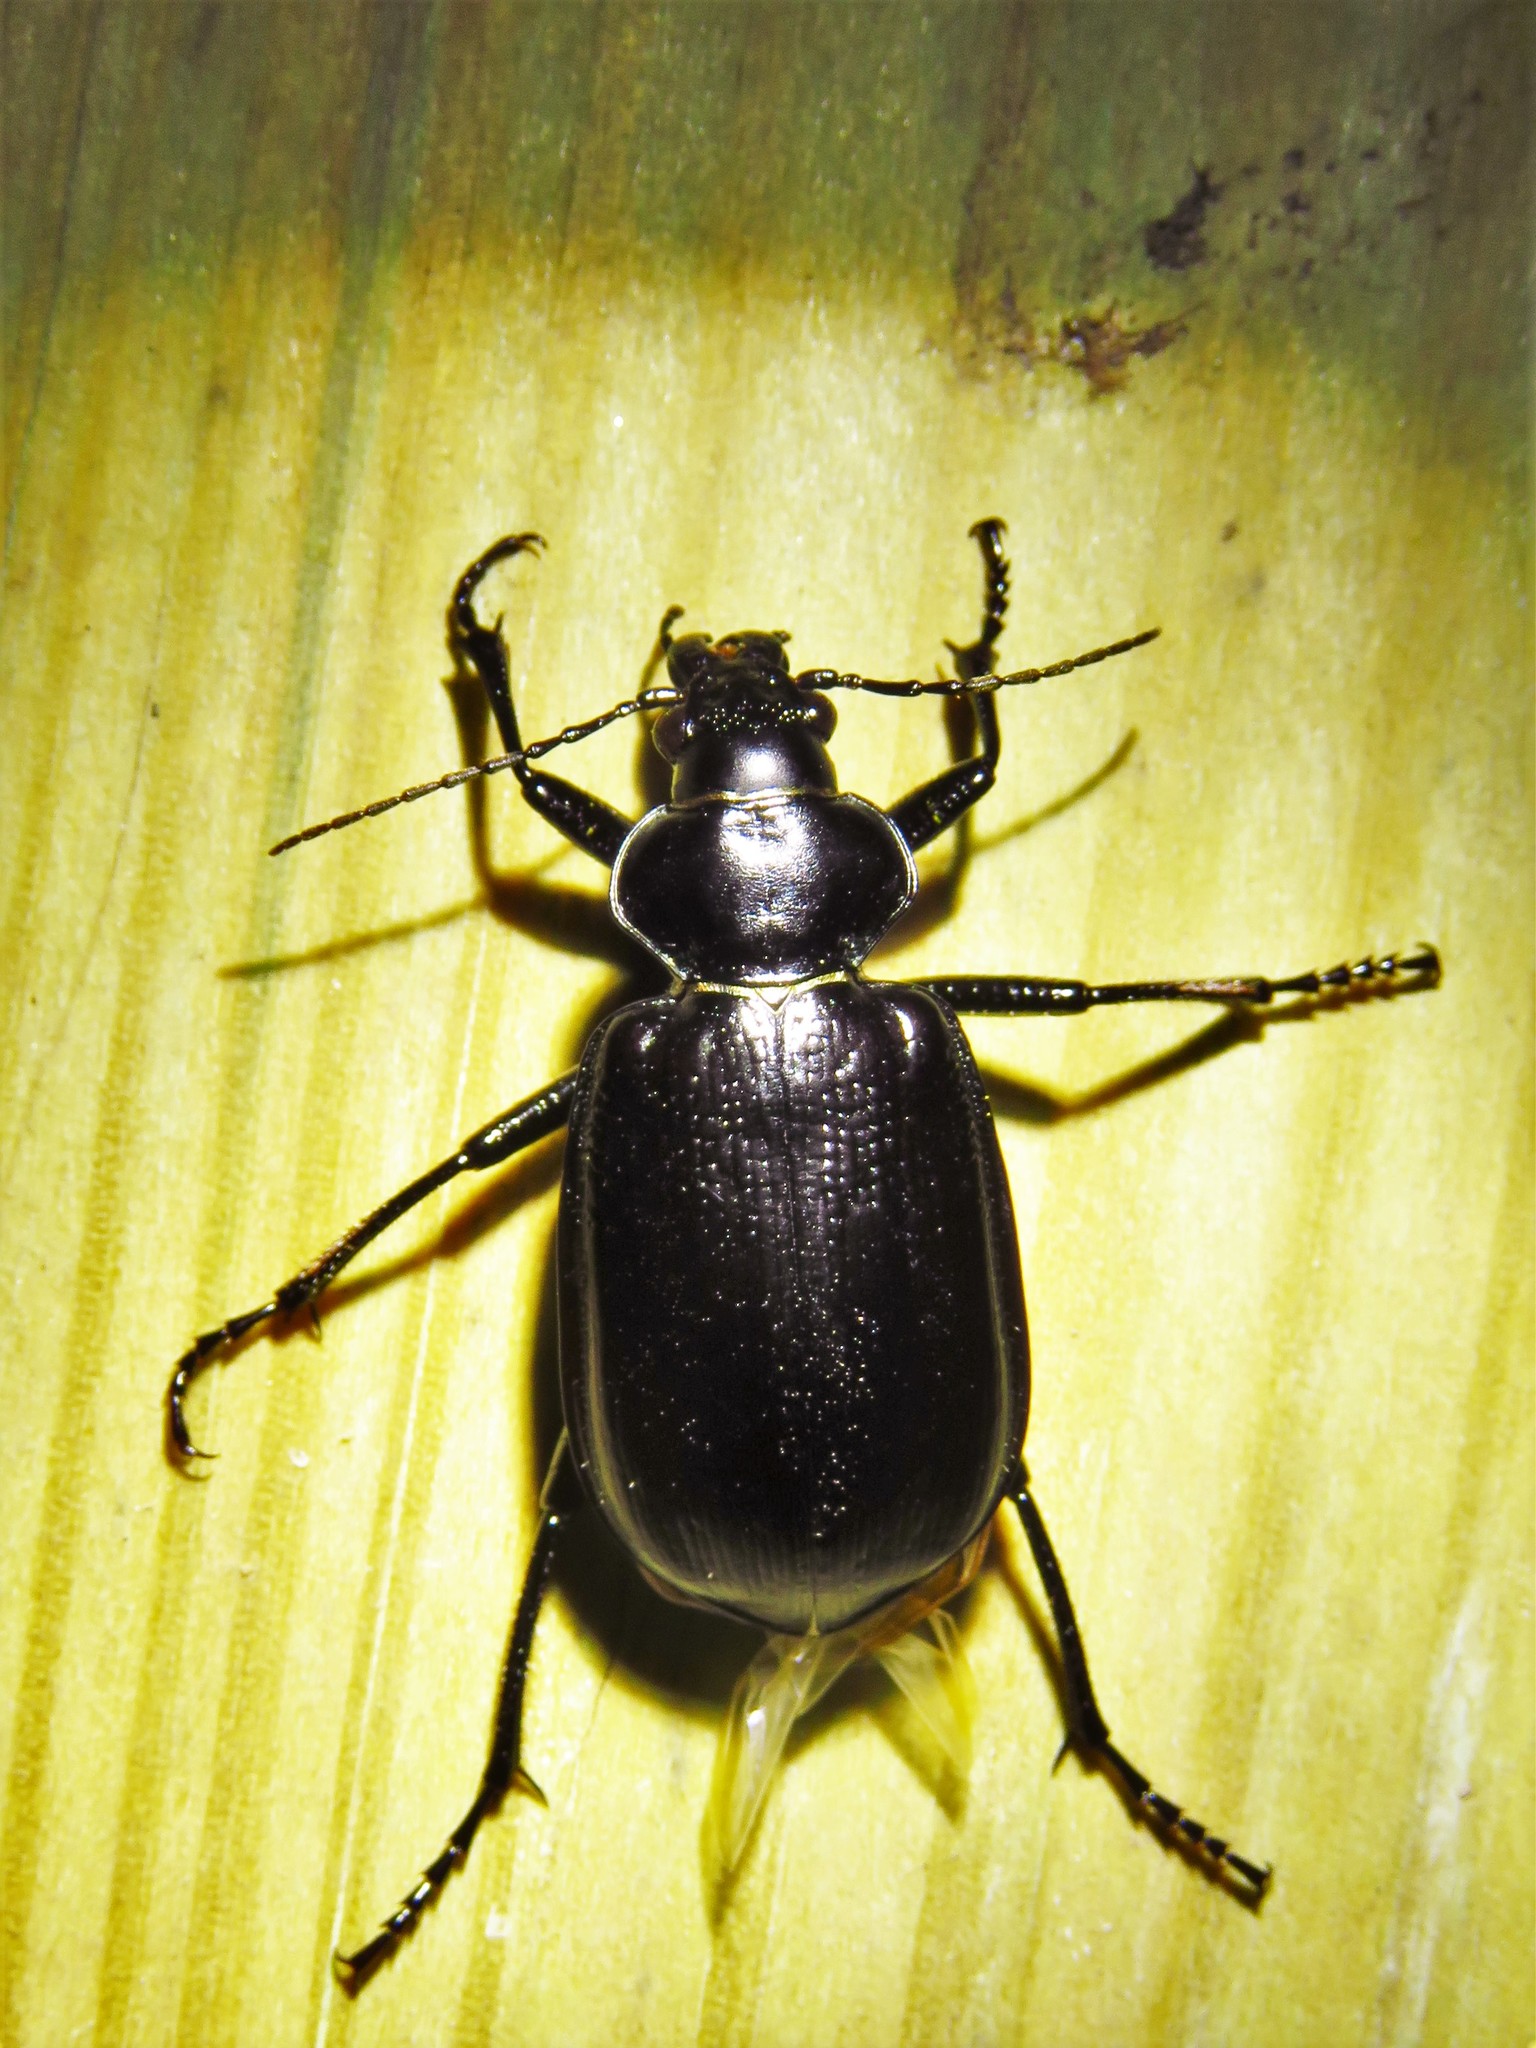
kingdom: Animalia
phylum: Arthropoda
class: Insecta
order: Coleoptera
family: Carabidae
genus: Calosoma
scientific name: Calosoma marginale
